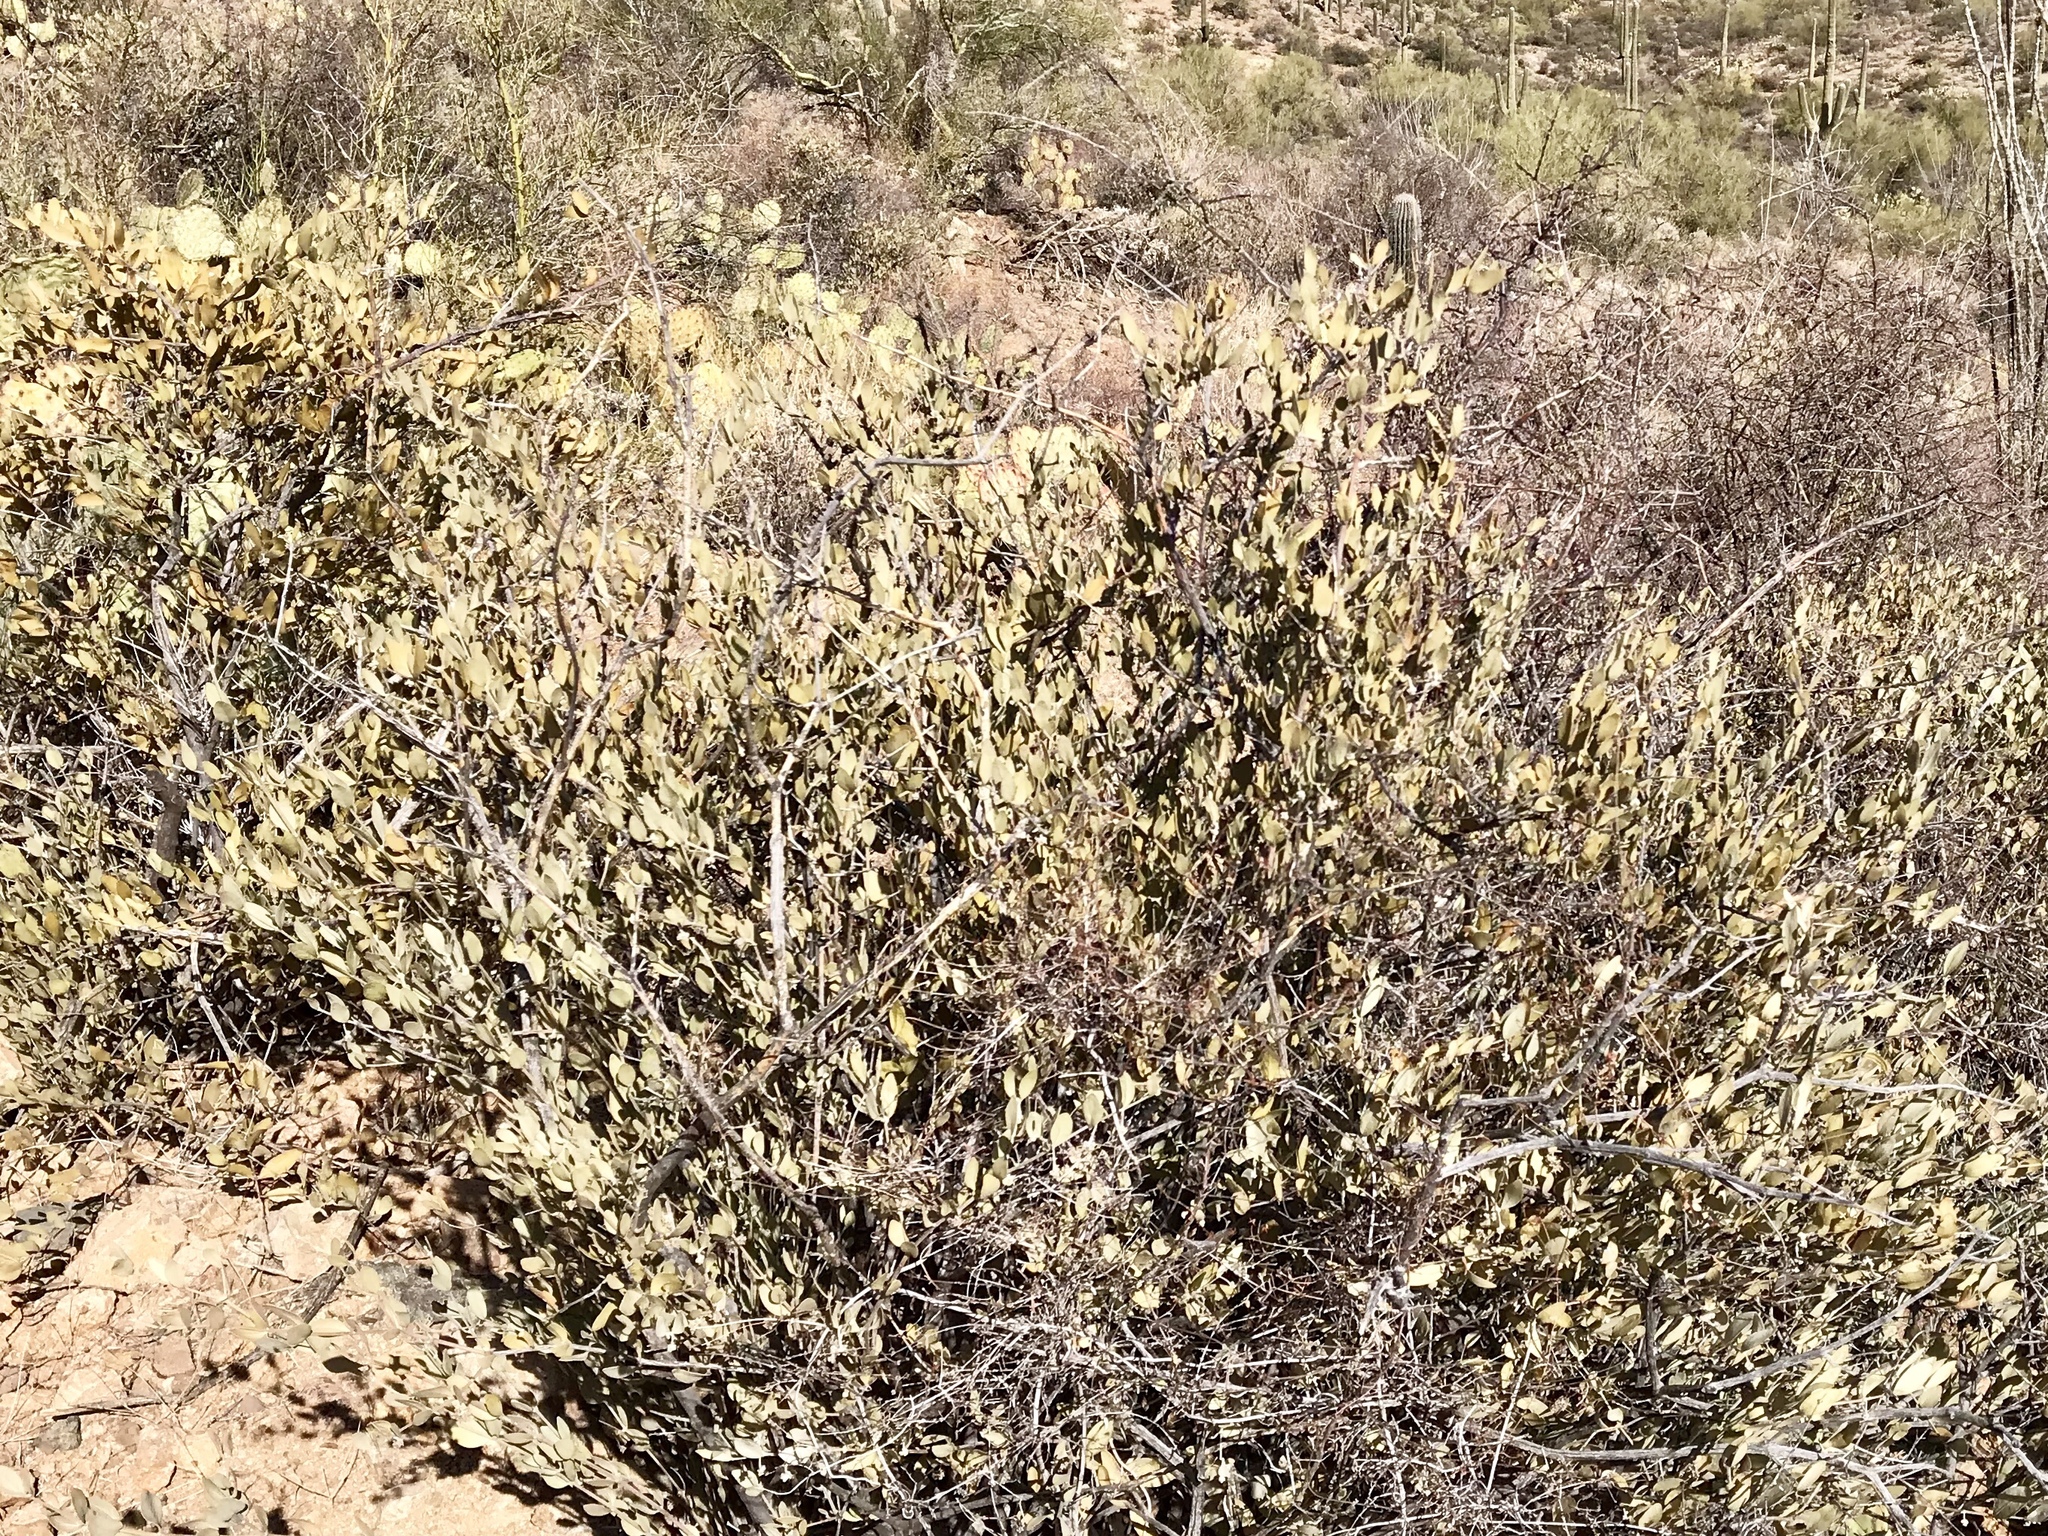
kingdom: Plantae
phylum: Tracheophyta
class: Magnoliopsida
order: Caryophyllales
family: Simmondsiaceae
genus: Simmondsia
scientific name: Simmondsia chinensis
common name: Jojoba
